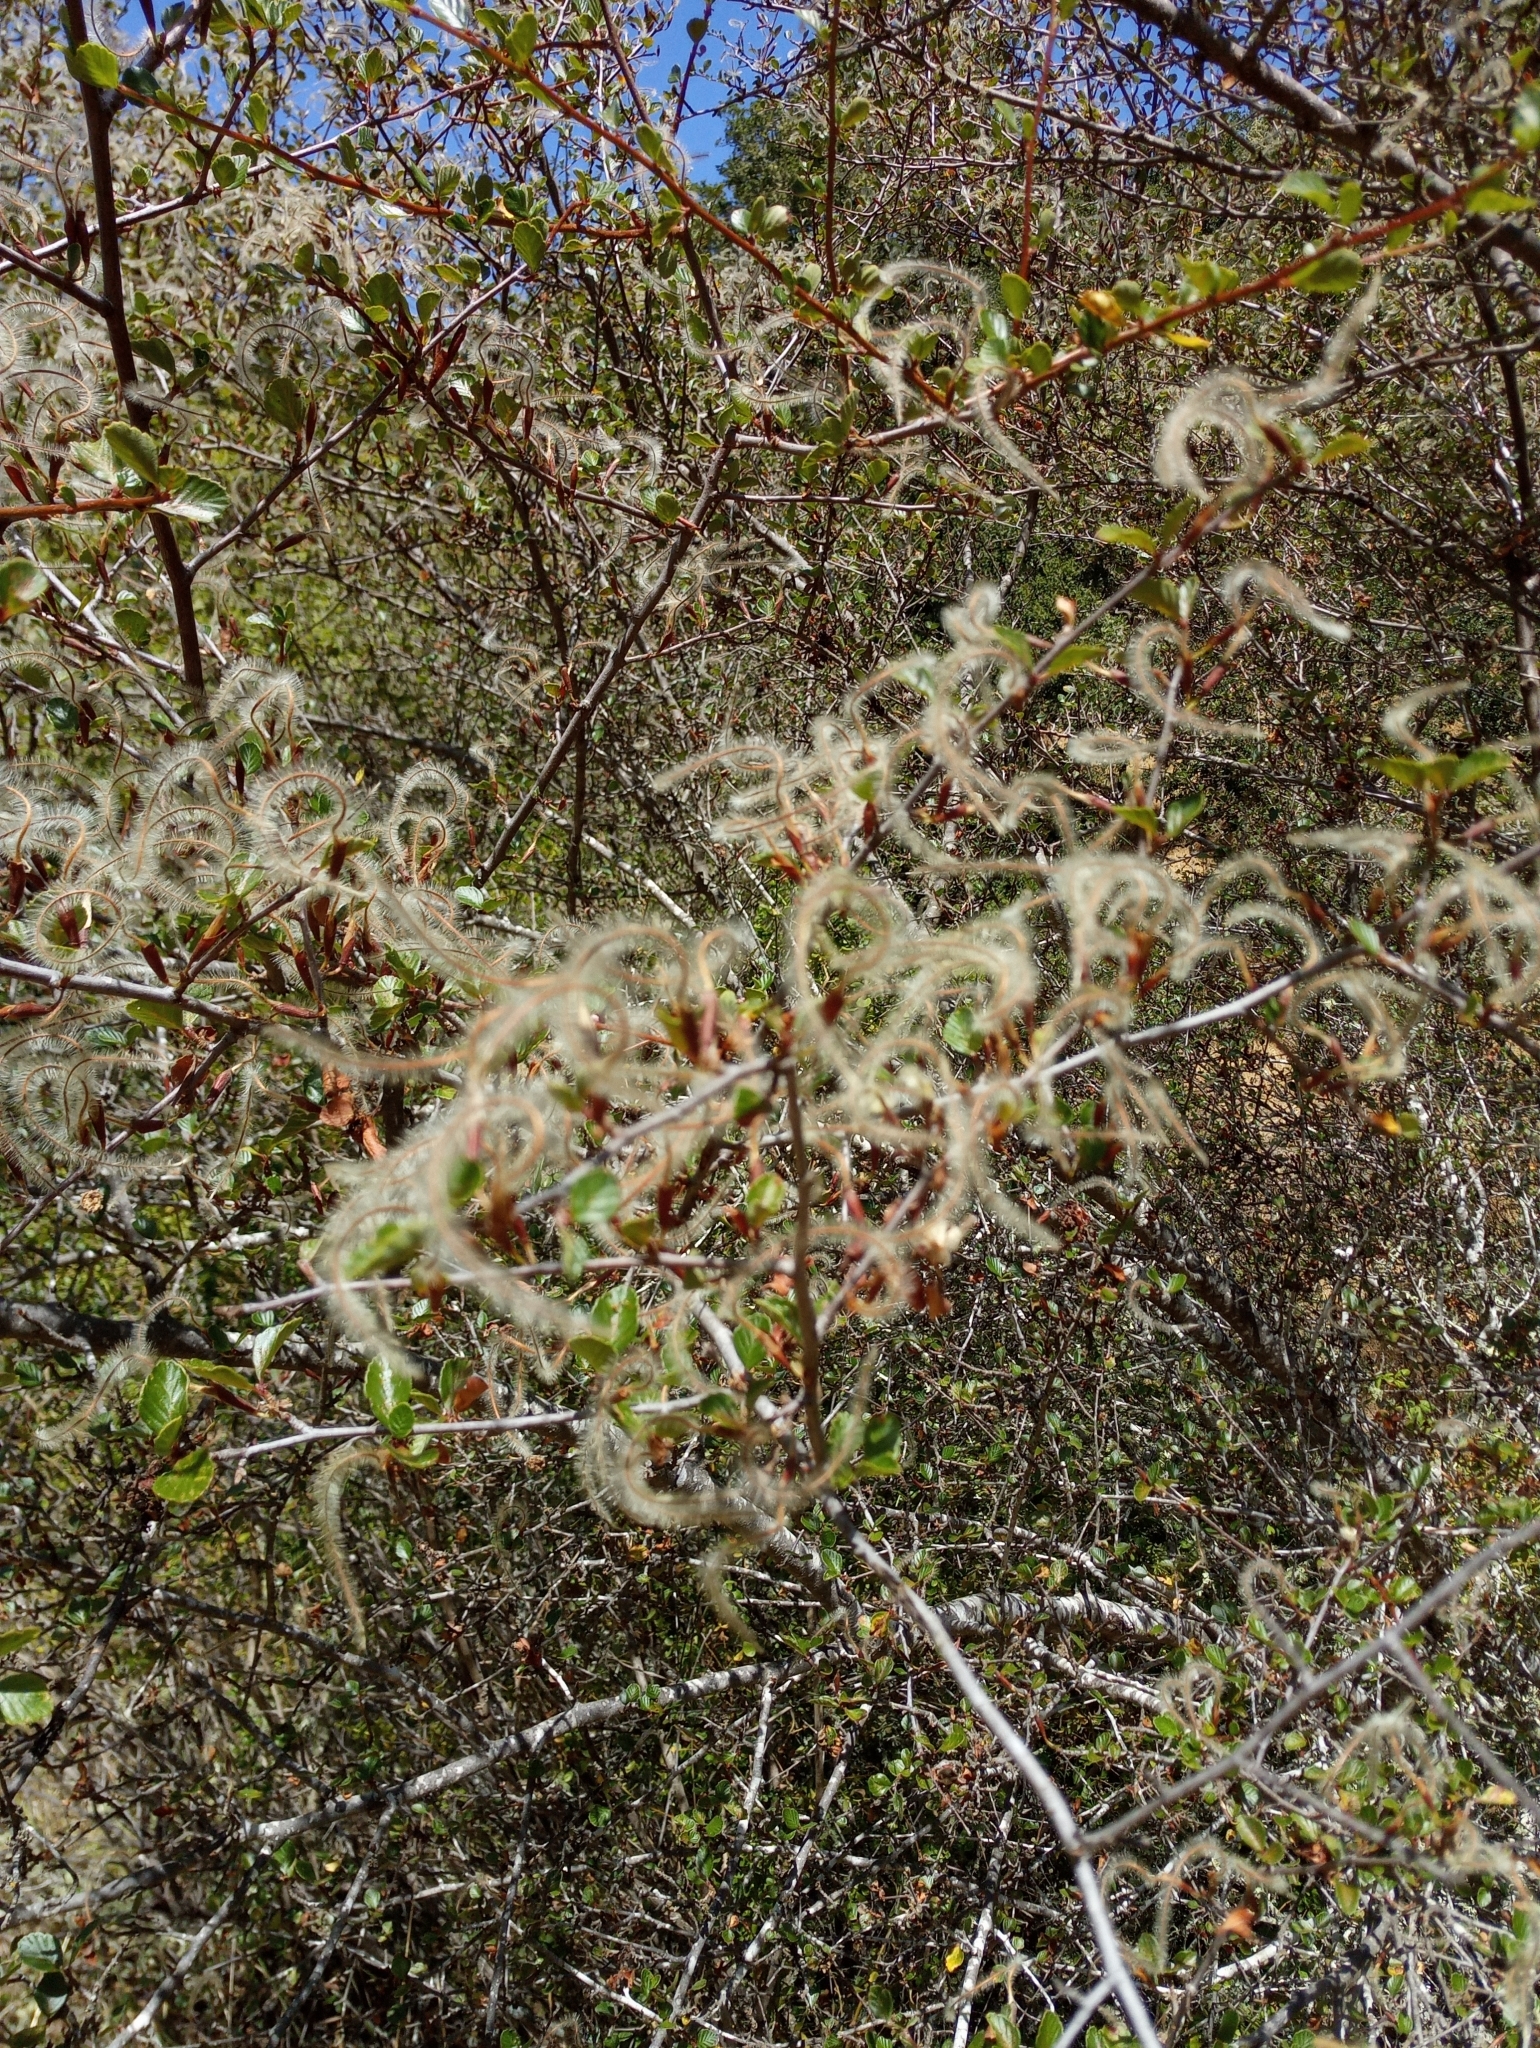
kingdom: Plantae
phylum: Tracheophyta
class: Magnoliopsida
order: Rosales
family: Rosaceae
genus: Cercocarpus
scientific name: Cercocarpus betuloides
